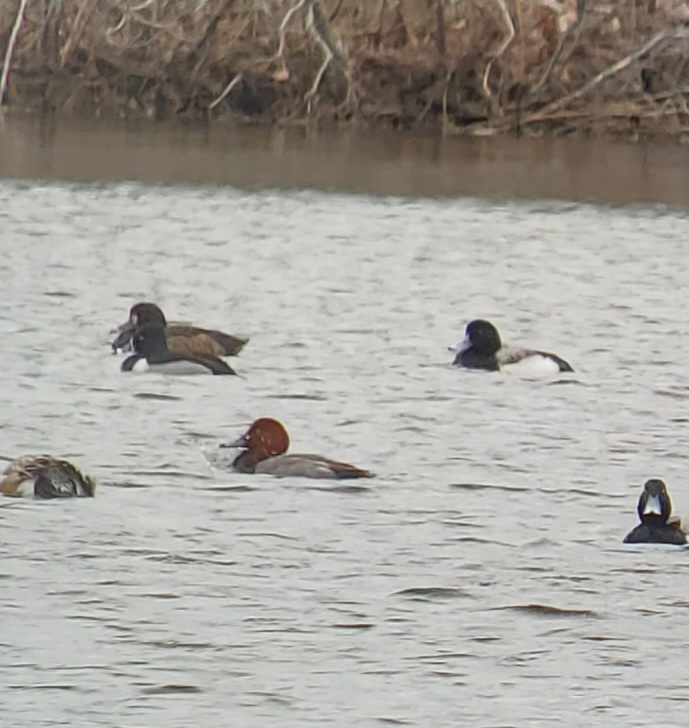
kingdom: Animalia
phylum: Chordata
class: Aves
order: Anseriformes
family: Anatidae
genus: Aythya
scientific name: Aythya americana
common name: Redhead
